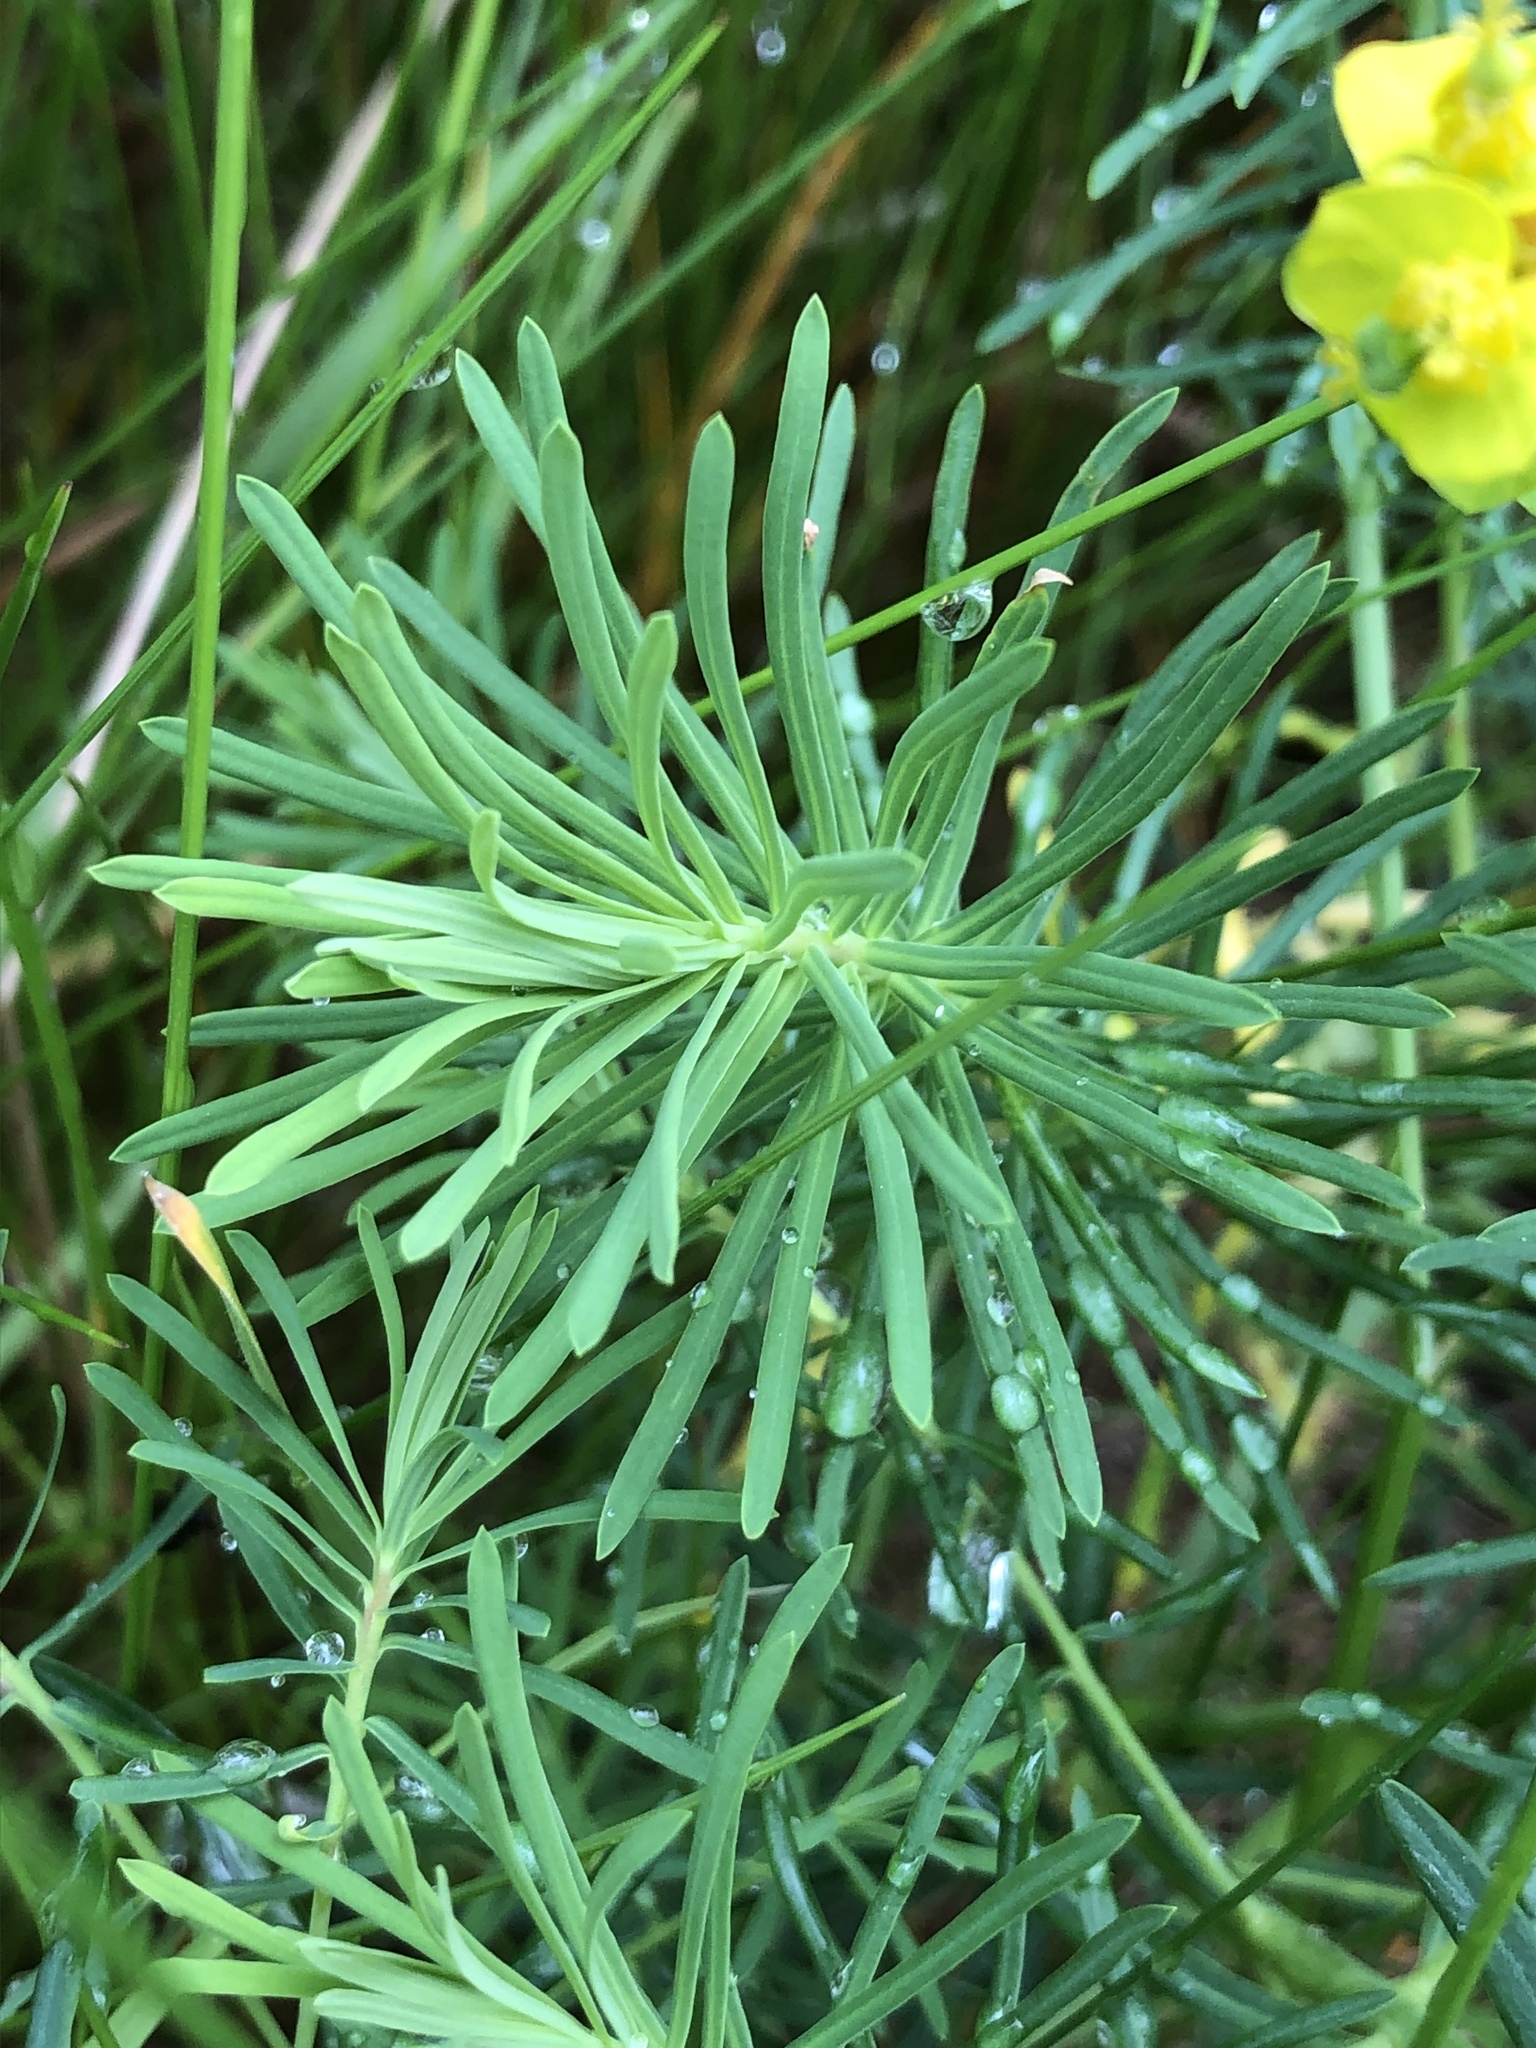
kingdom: Plantae
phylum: Tracheophyta
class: Magnoliopsida
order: Malpighiales
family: Euphorbiaceae
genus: Euphorbia
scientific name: Euphorbia cyparissias
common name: Cypress spurge
